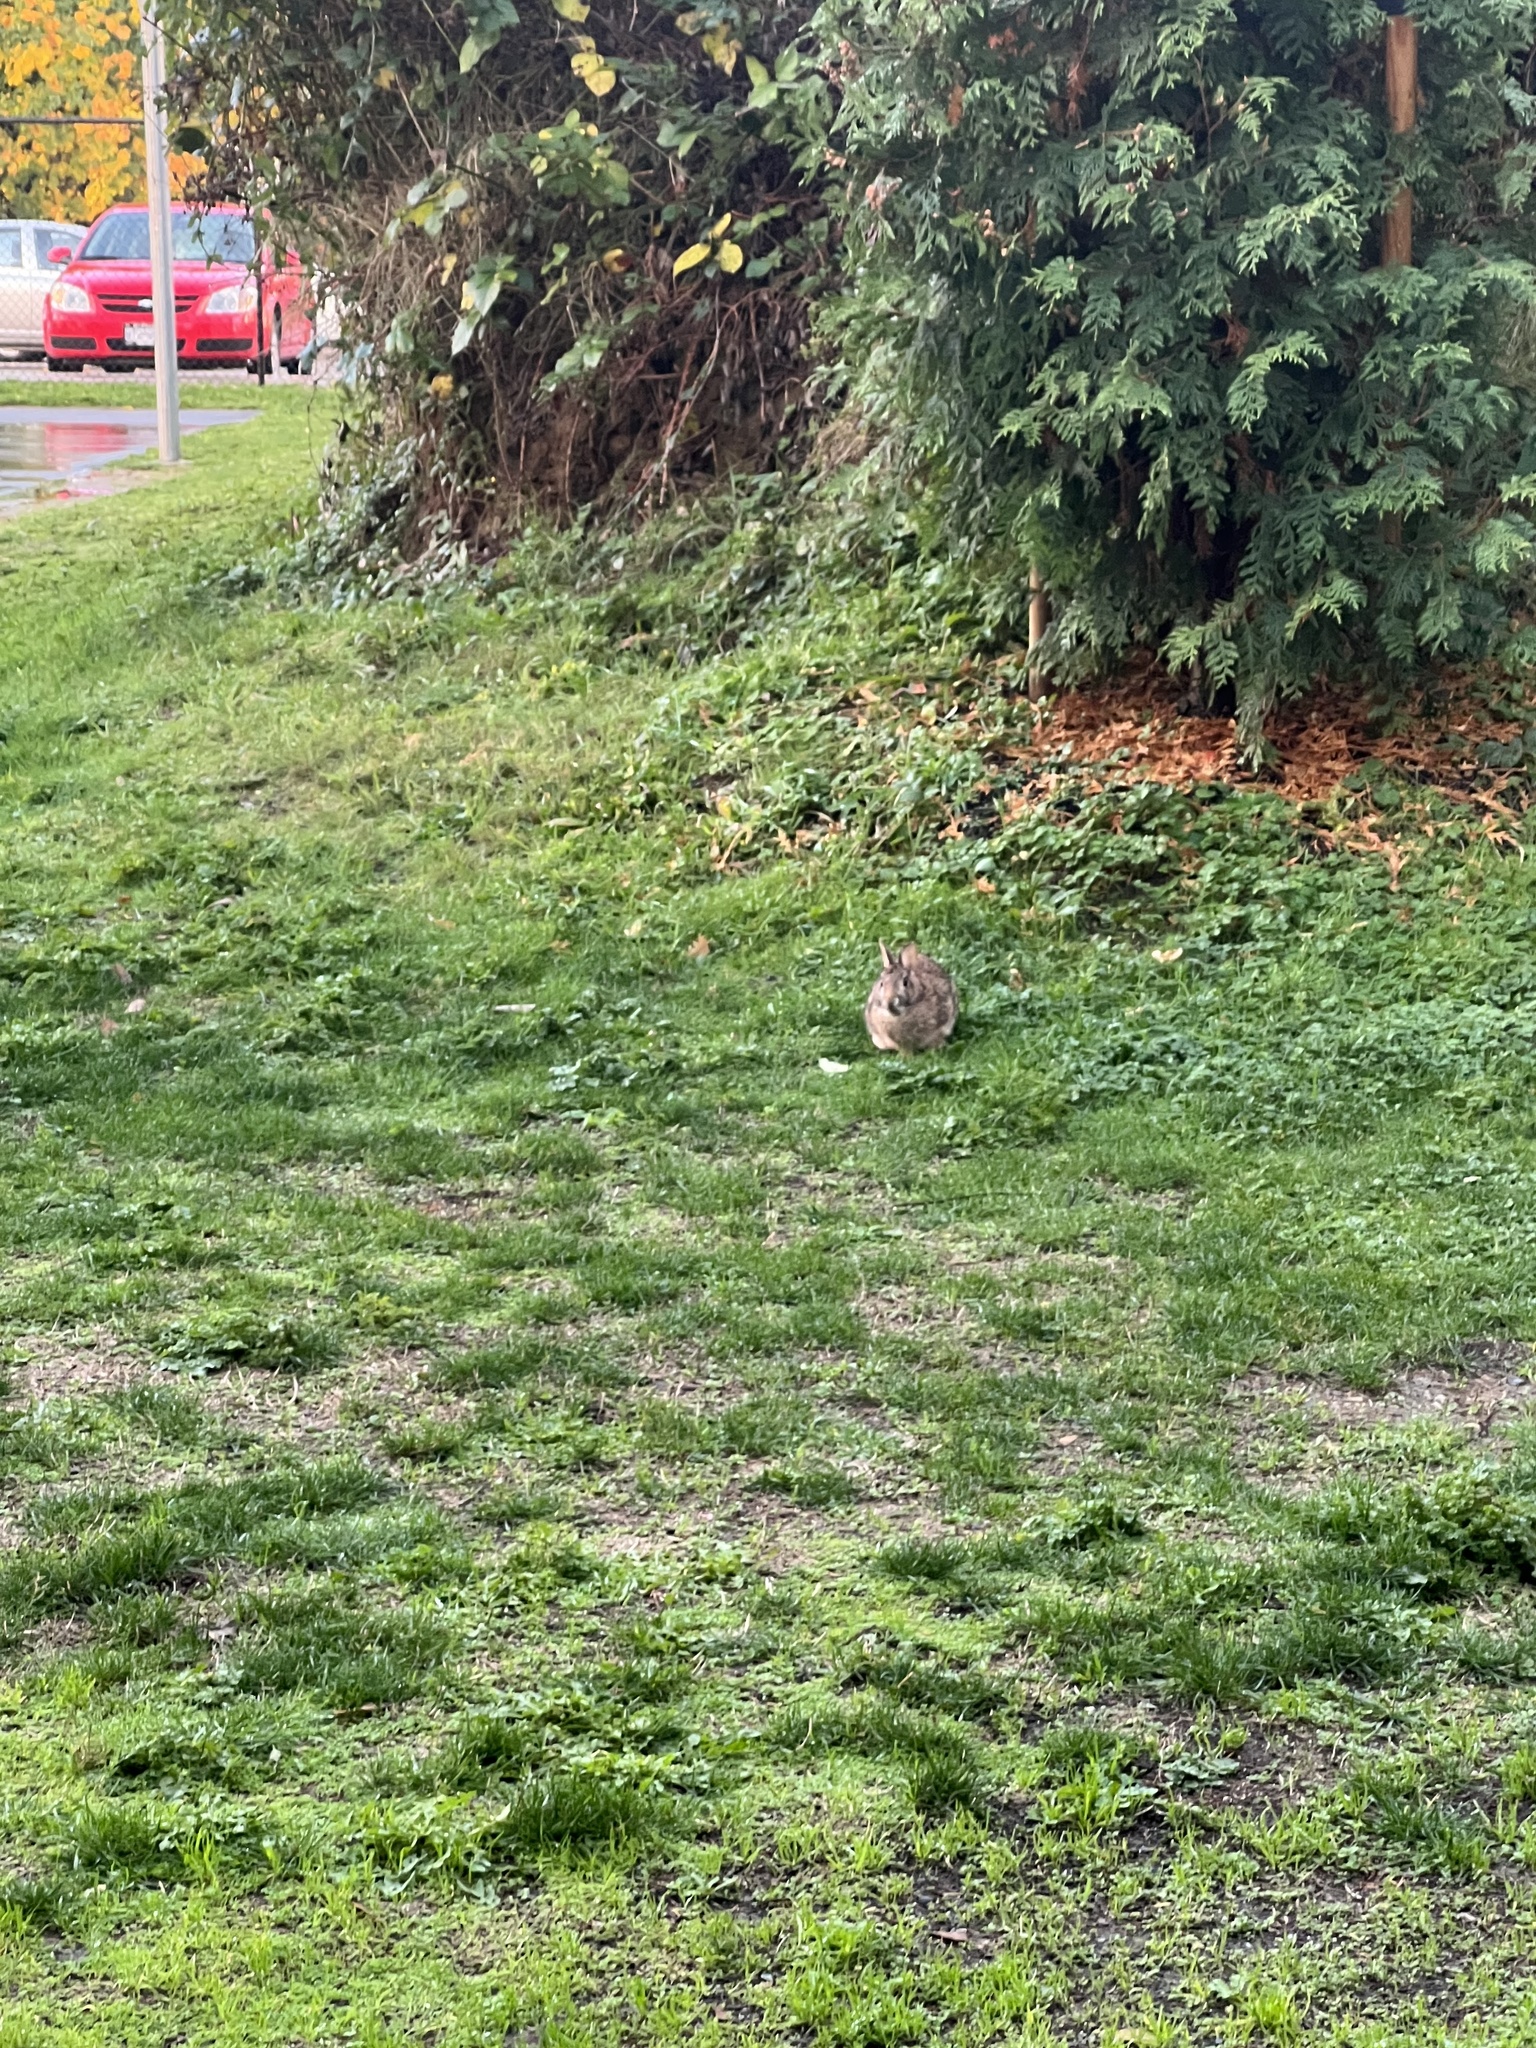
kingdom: Animalia
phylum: Chordata
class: Mammalia
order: Lagomorpha
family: Leporidae
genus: Sylvilagus
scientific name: Sylvilagus floridanus
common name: Eastern cottontail
